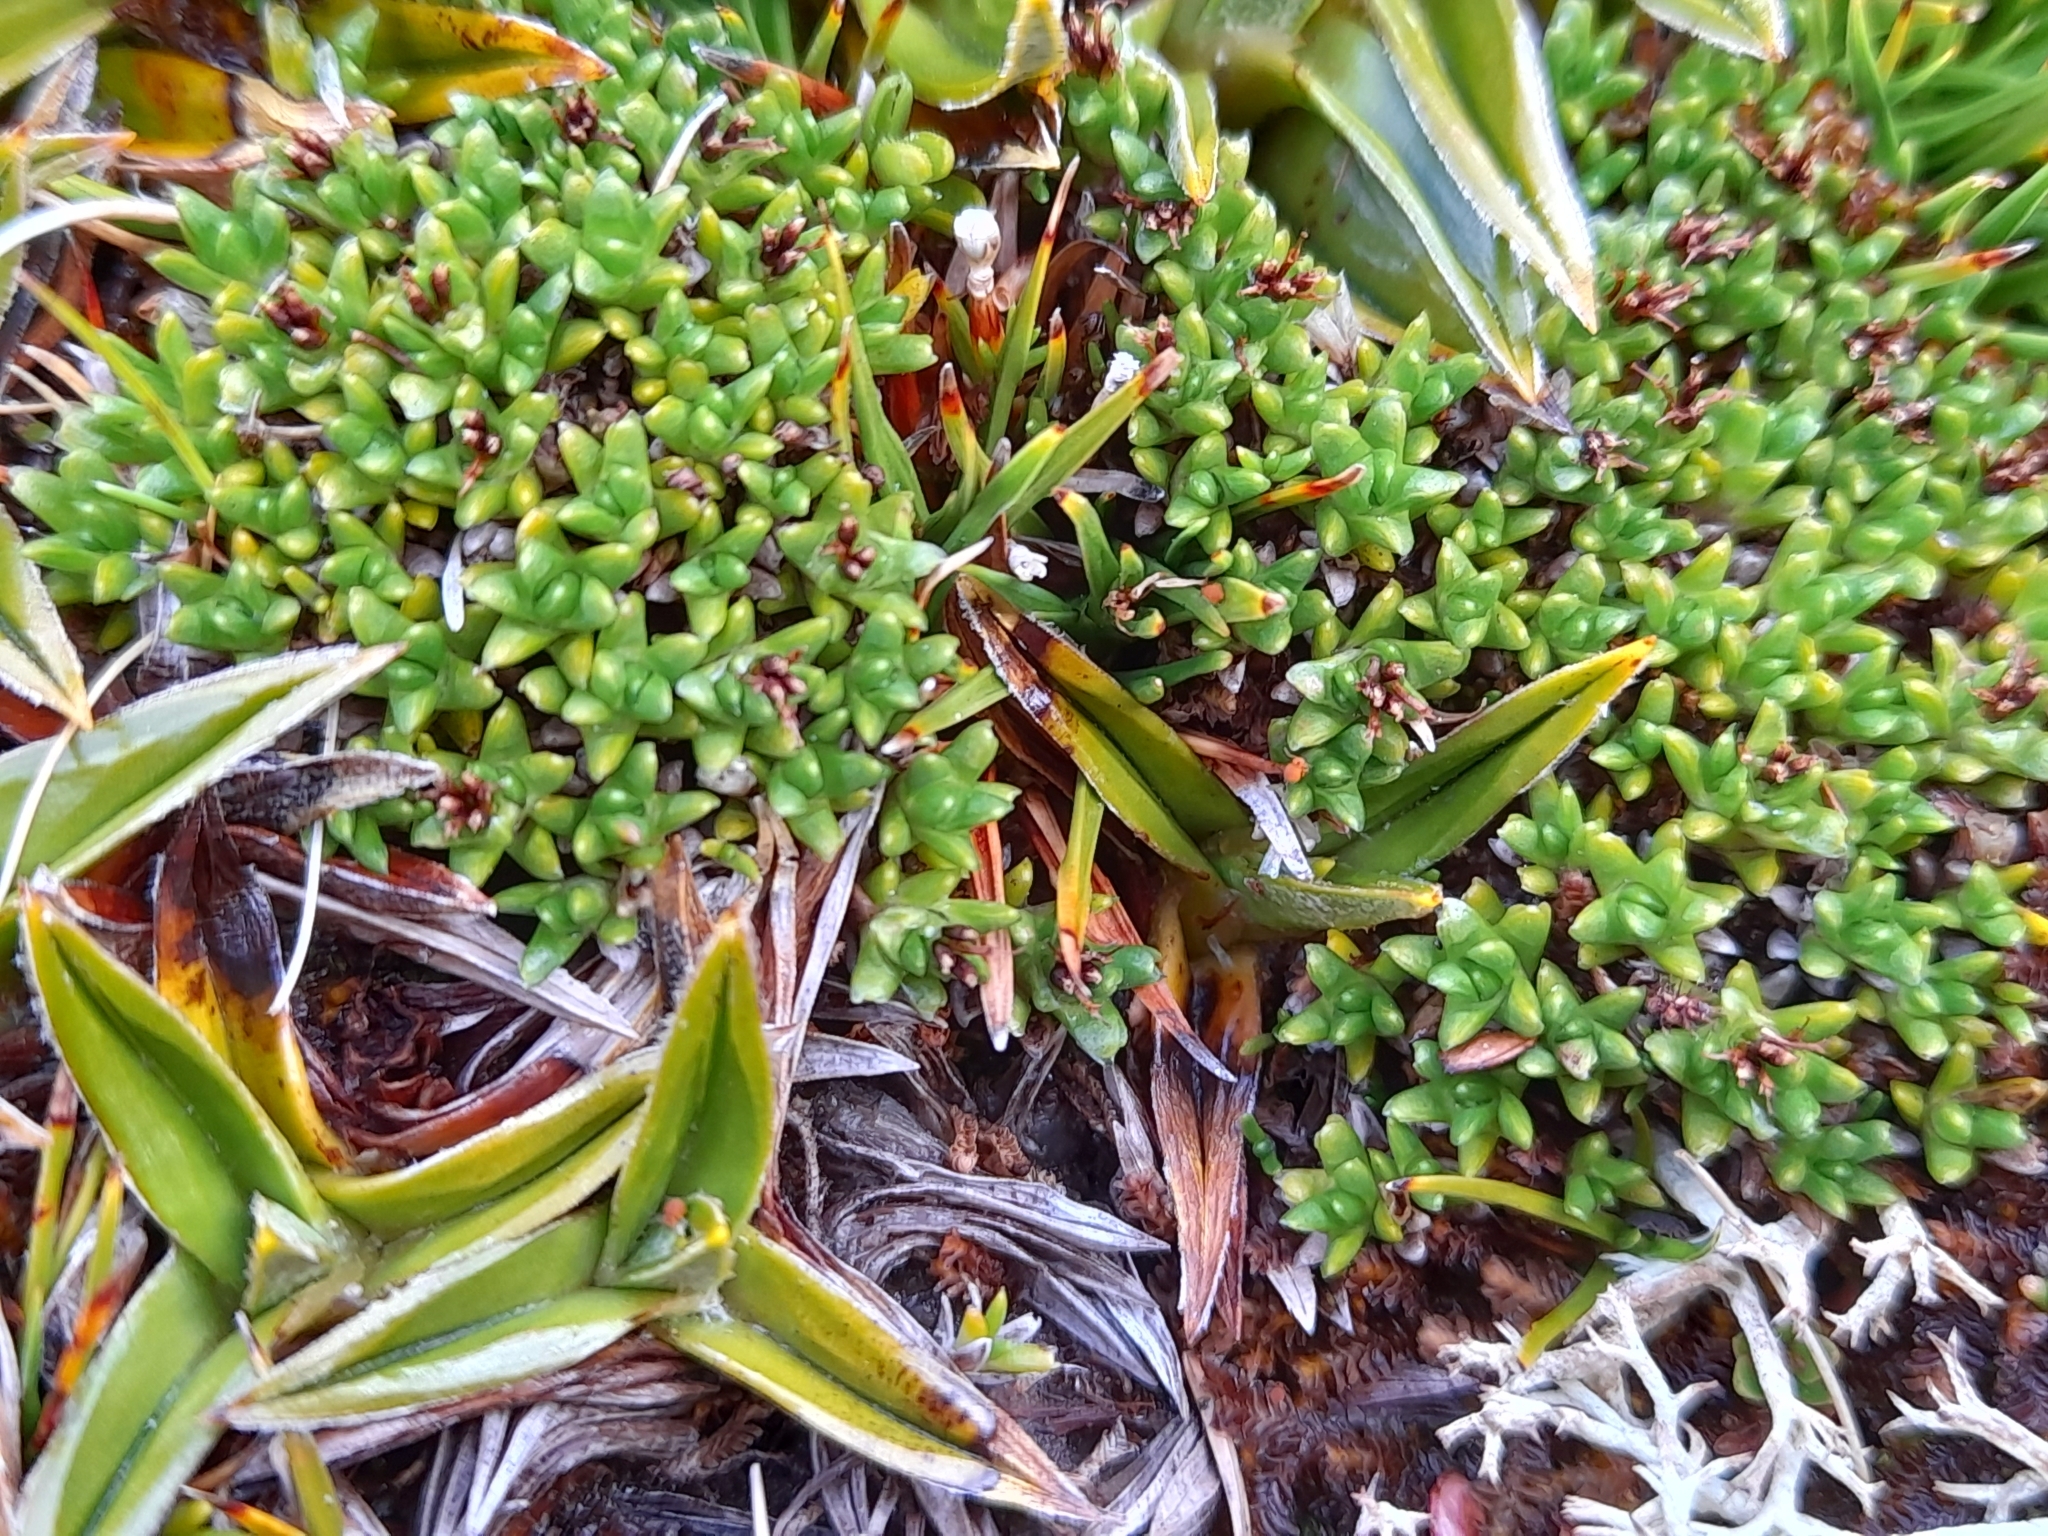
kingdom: Plantae
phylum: Tracheophyta
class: Magnoliopsida
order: Asterales
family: Asteraceae
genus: Abrotanella
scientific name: Abrotanella emarginata
